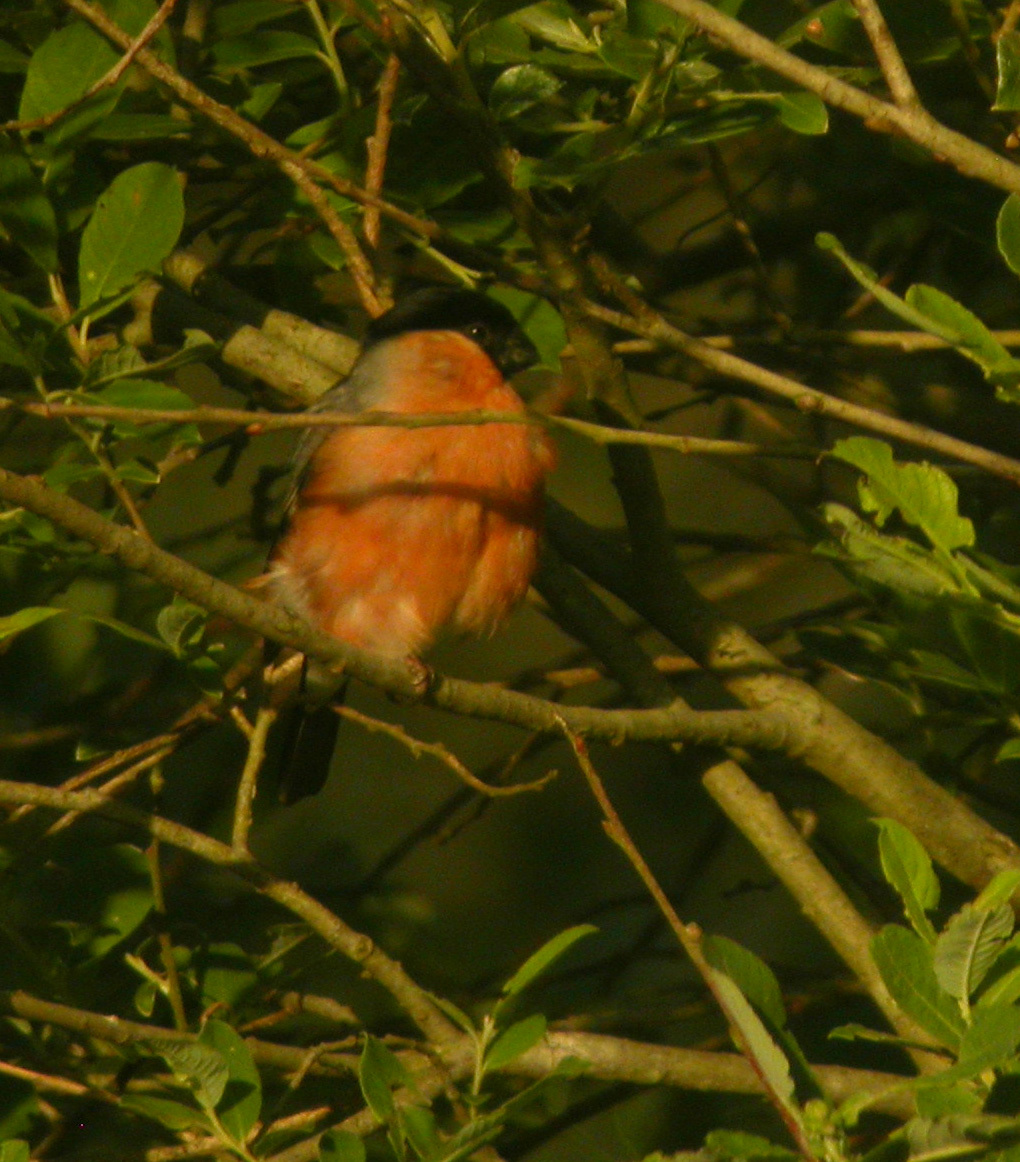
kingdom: Animalia
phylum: Chordata
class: Aves
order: Passeriformes
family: Fringillidae
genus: Pyrrhula
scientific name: Pyrrhula pyrrhula
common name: Eurasian bullfinch
